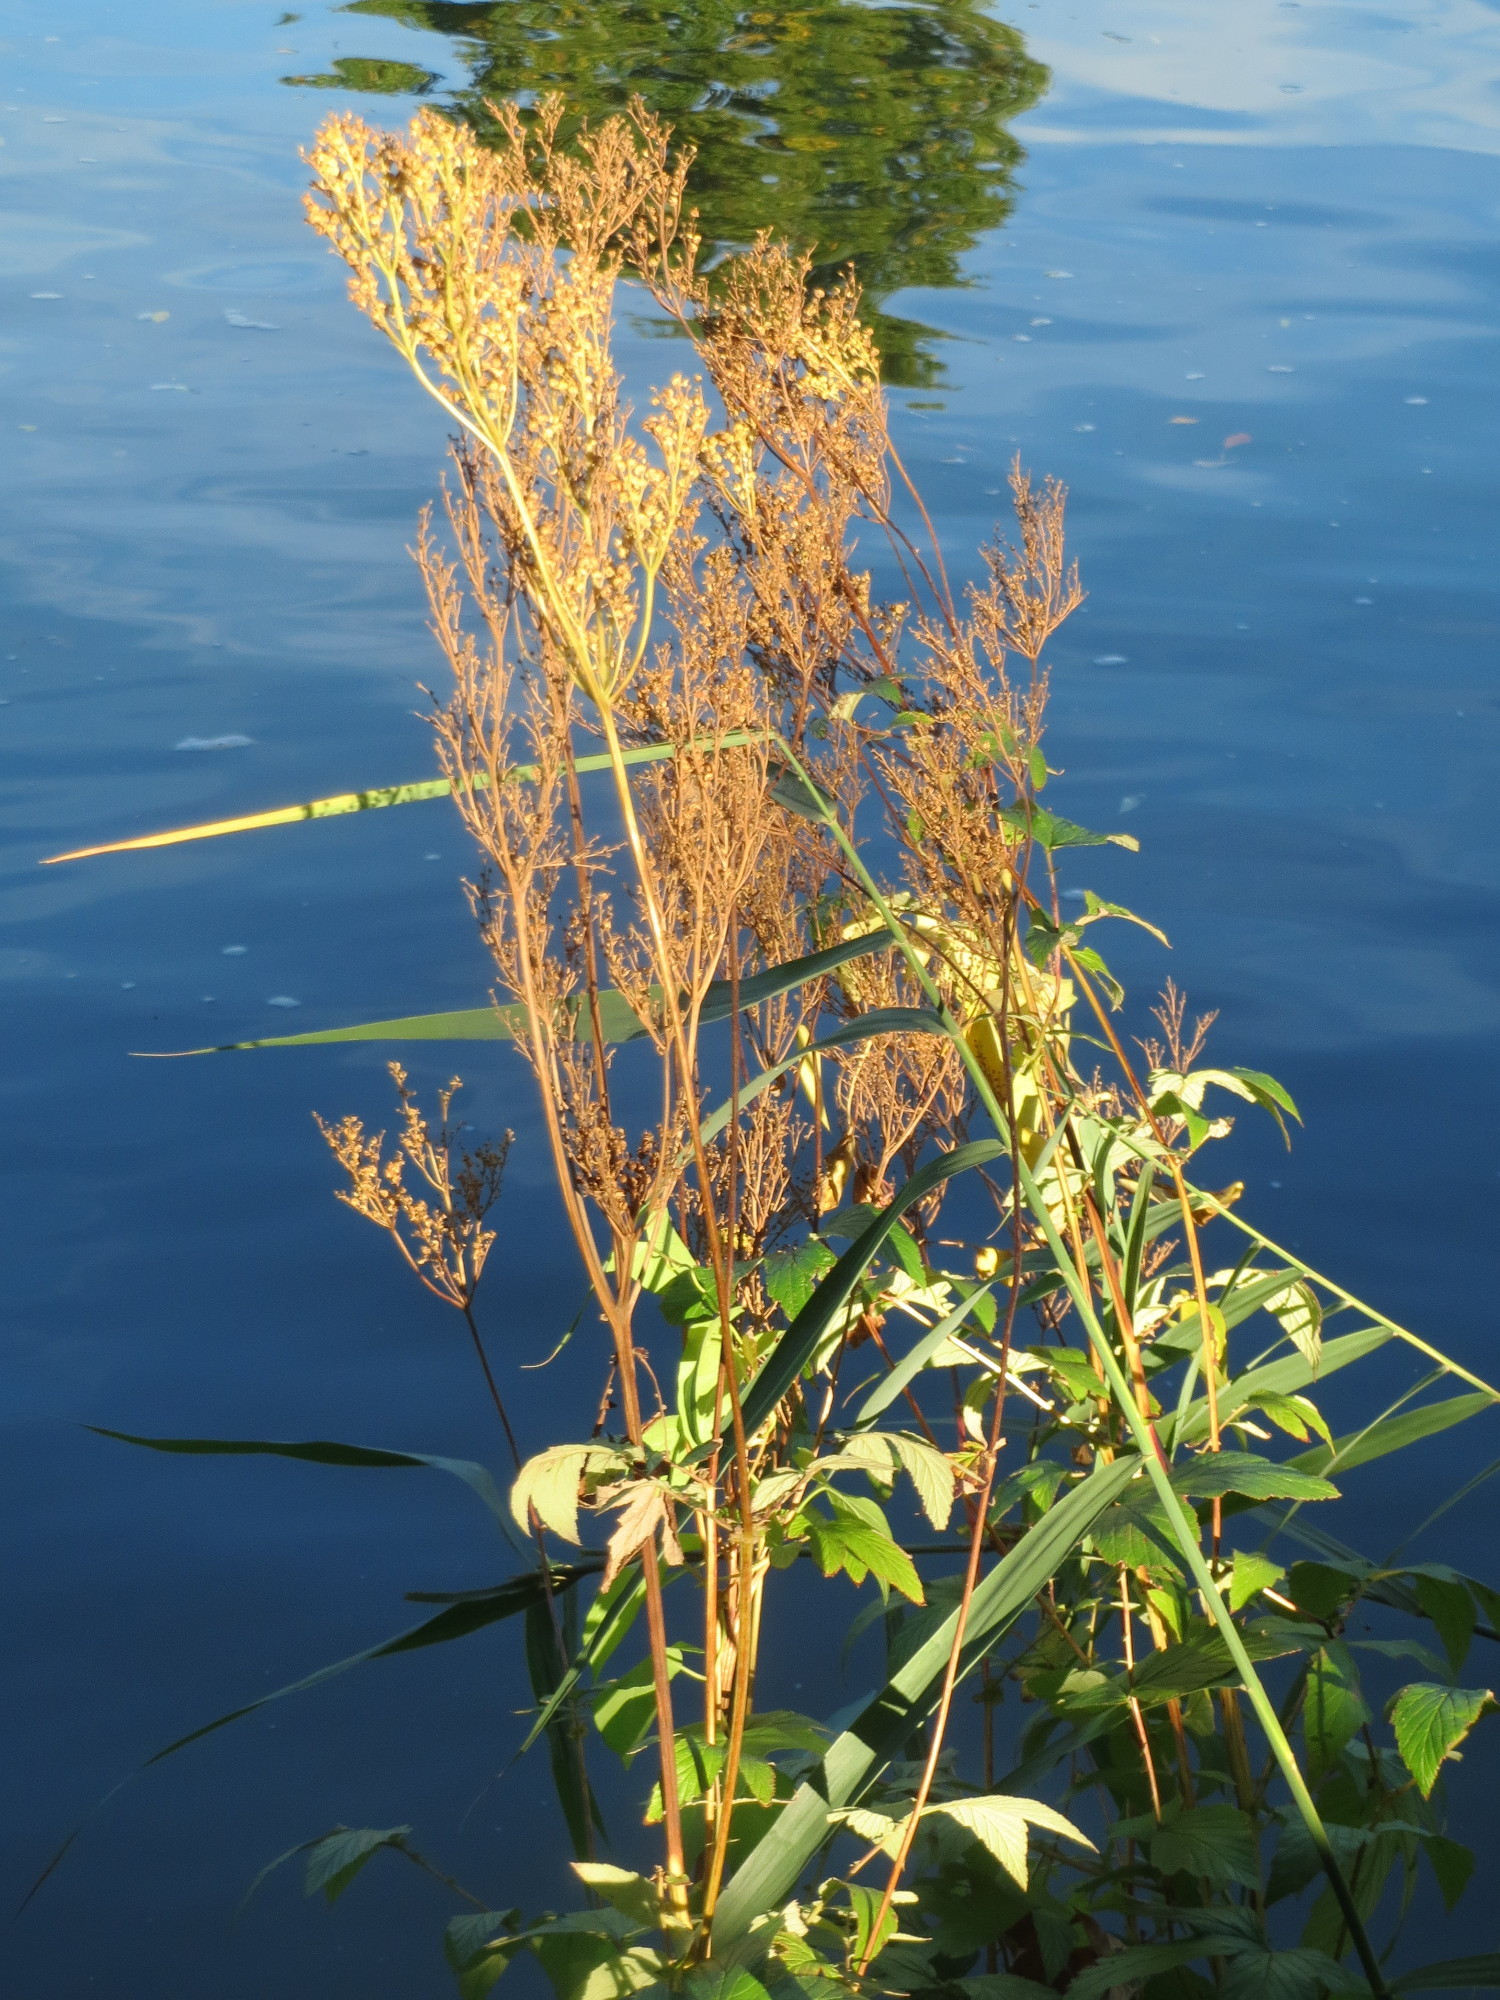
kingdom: Plantae
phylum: Tracheophyta
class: Magnoliopsida
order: Rosales
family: Rosaceae
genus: Filipendula
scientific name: Filipendula ulmaria
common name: Meadowsweet
